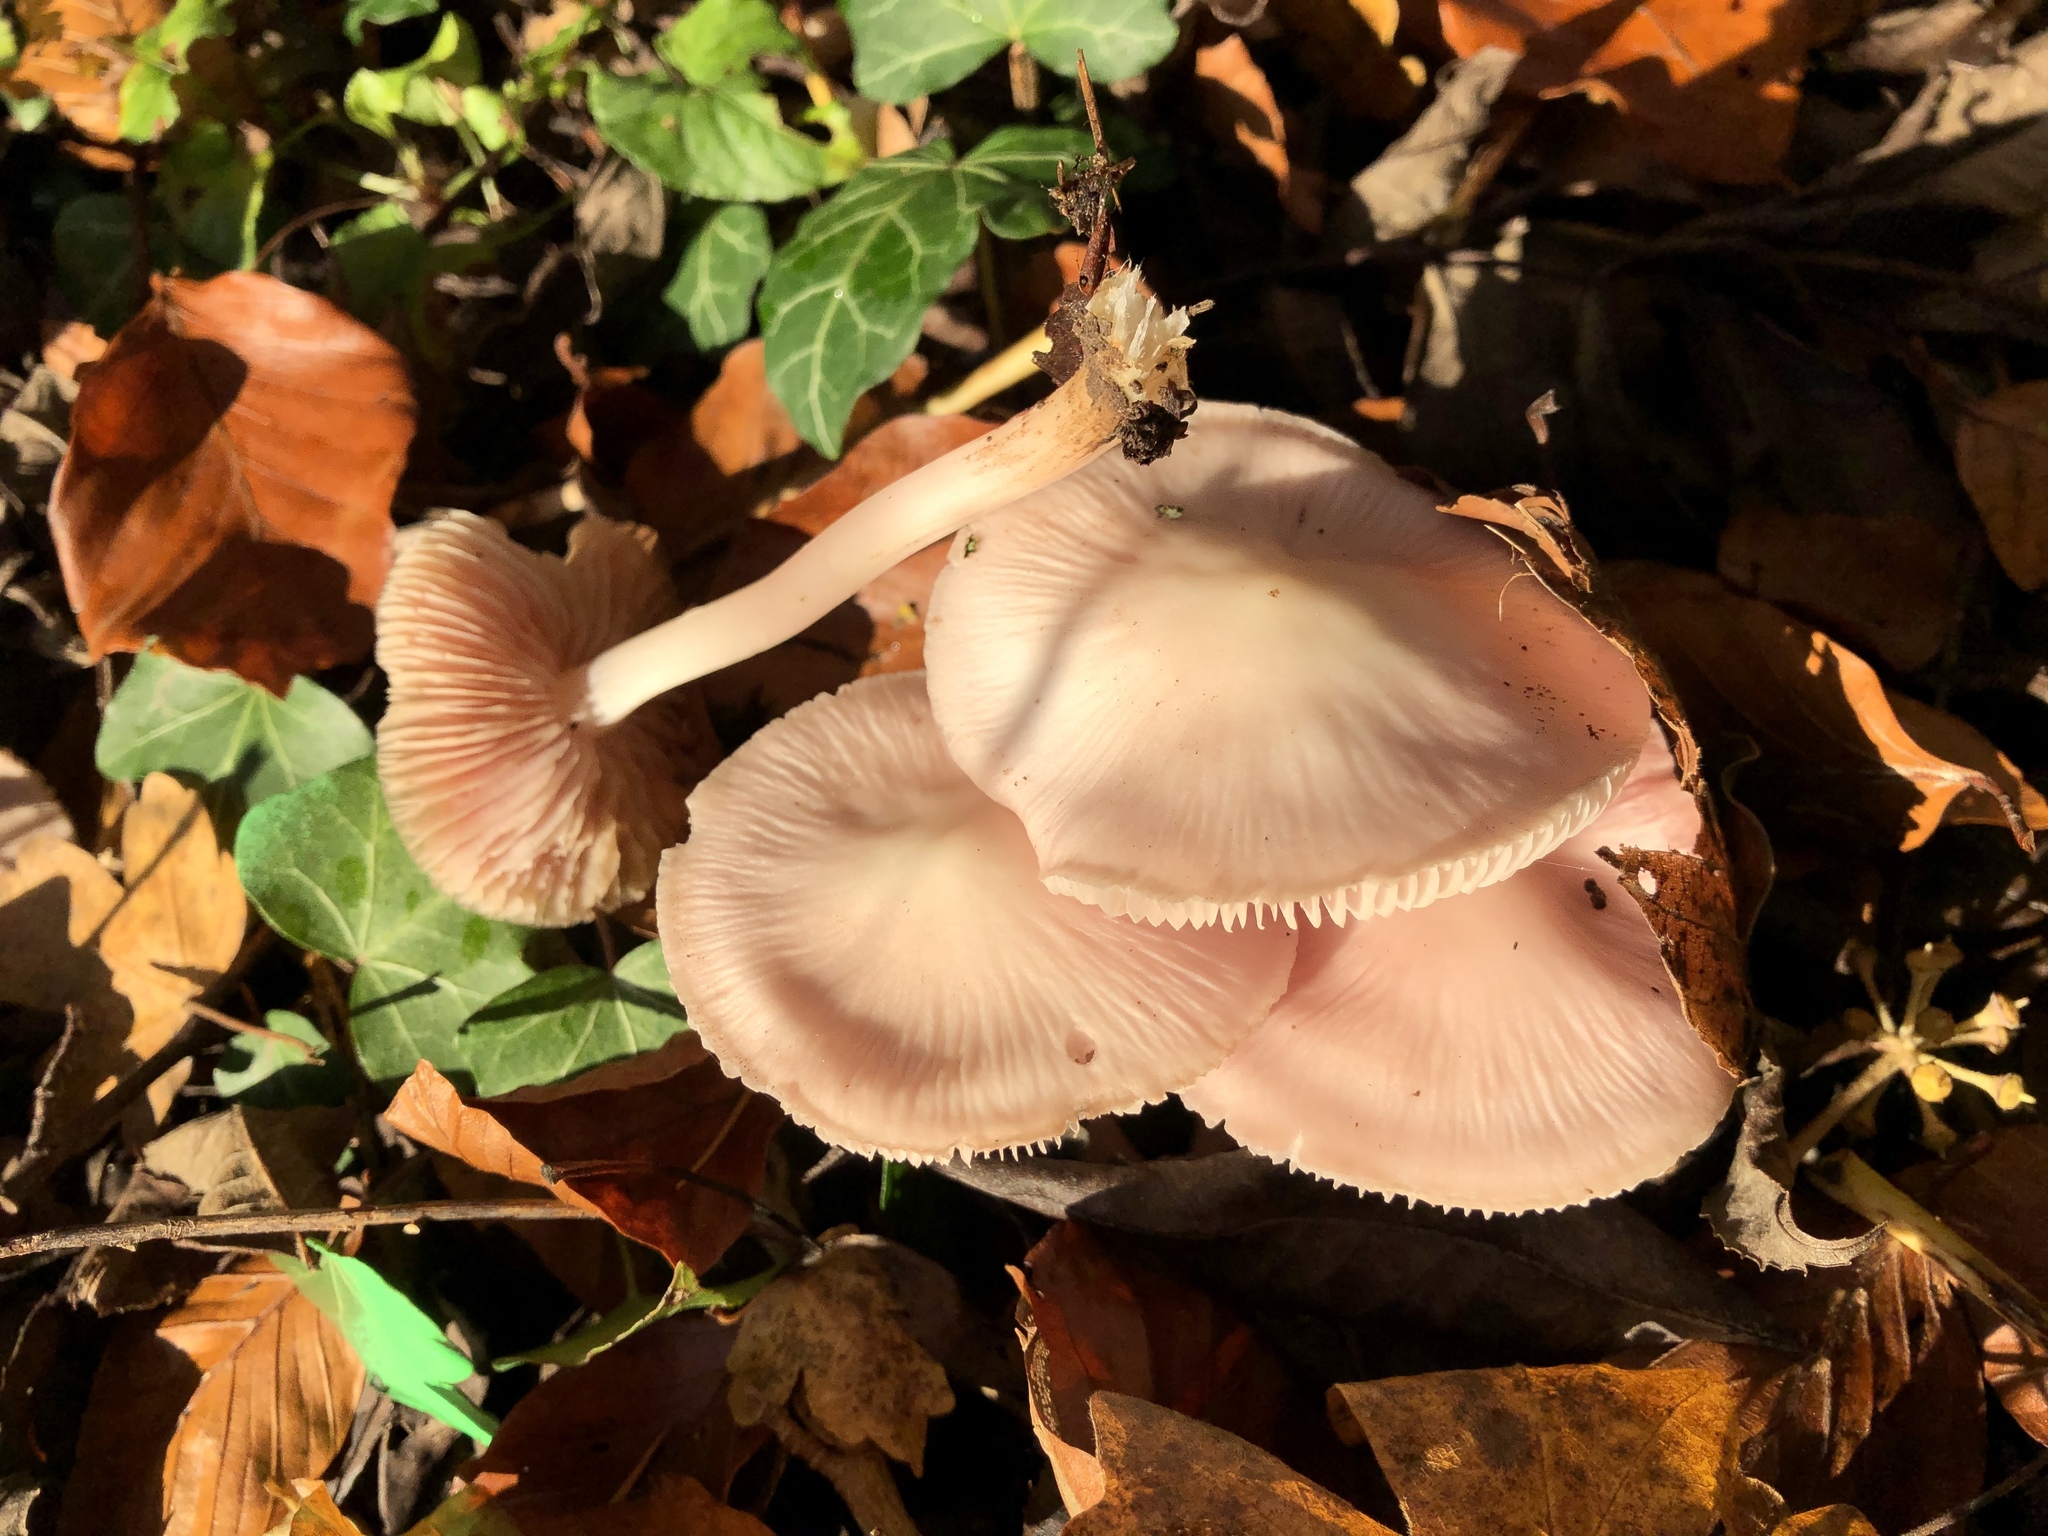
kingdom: Fungi
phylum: Basidiomycota
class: Agaricomycetes
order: Agaricales
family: Mycenaceae
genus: Mycena
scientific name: Mycena rosea
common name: Rosy bonnet
